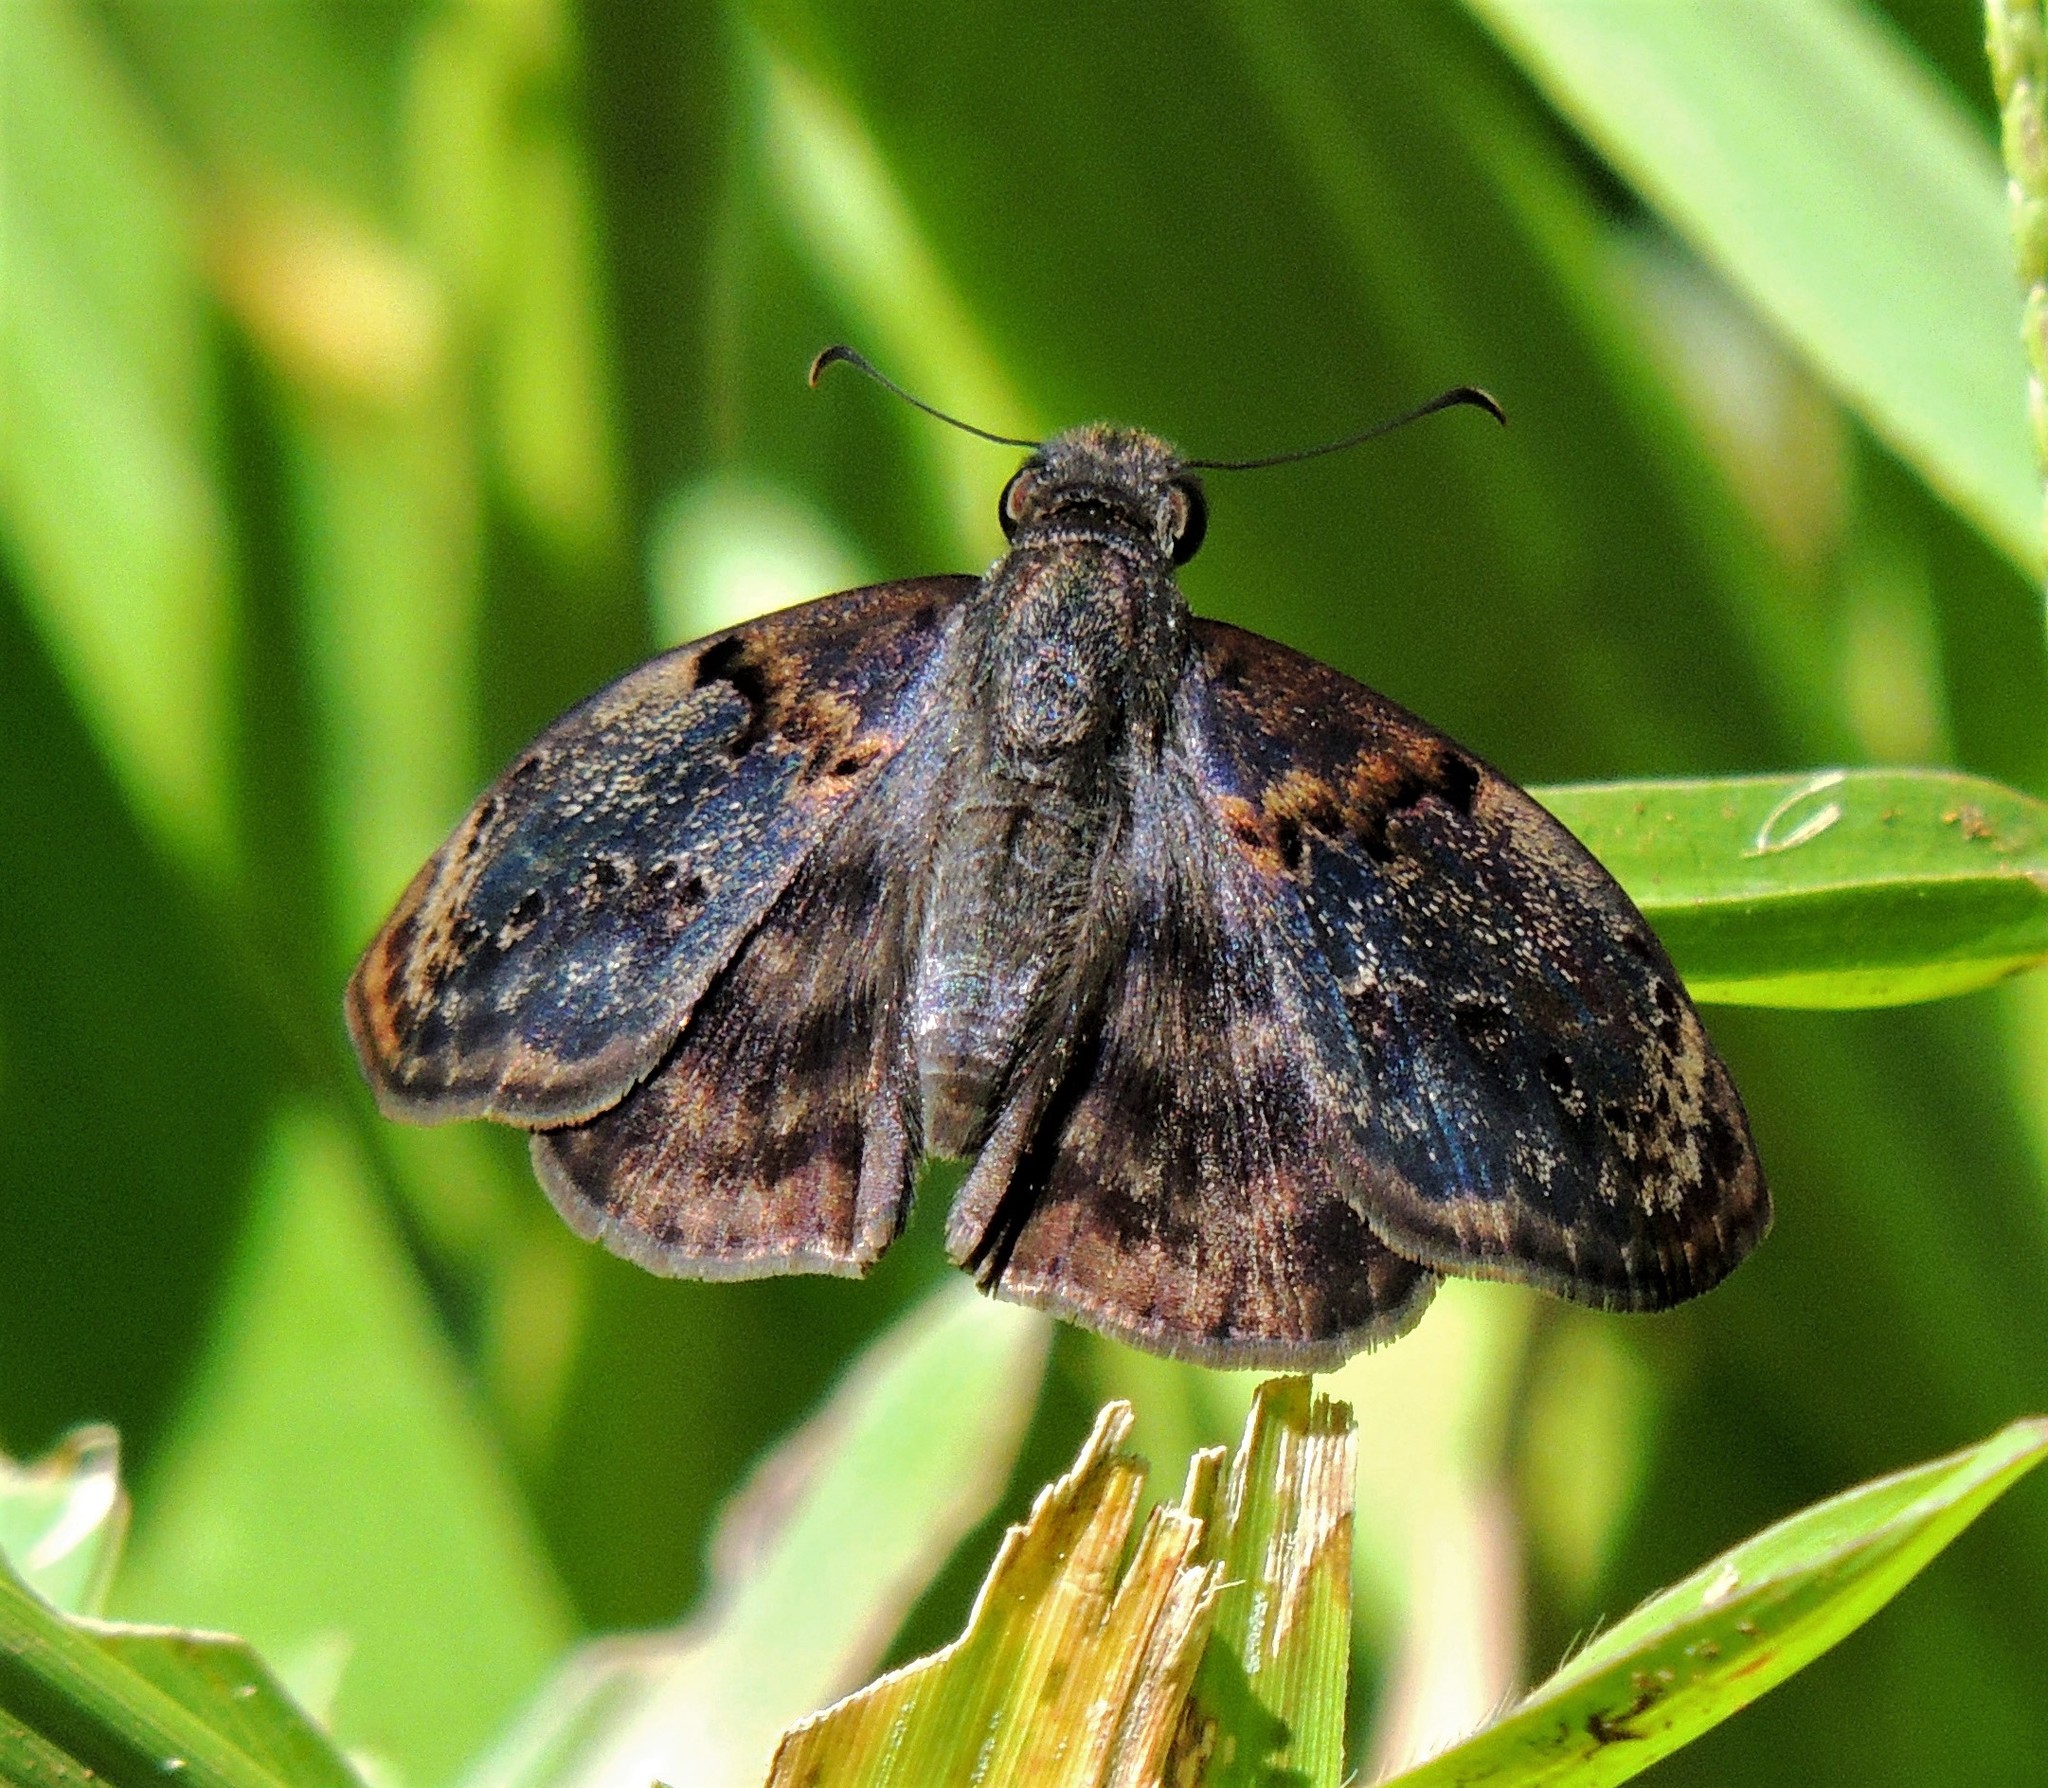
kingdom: Animalia
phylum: Arthropoda
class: Insecta
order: Lepidoptera
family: Hesperiidae
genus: Chiomara
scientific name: Chiomara mithrax
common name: Slaty skipper
